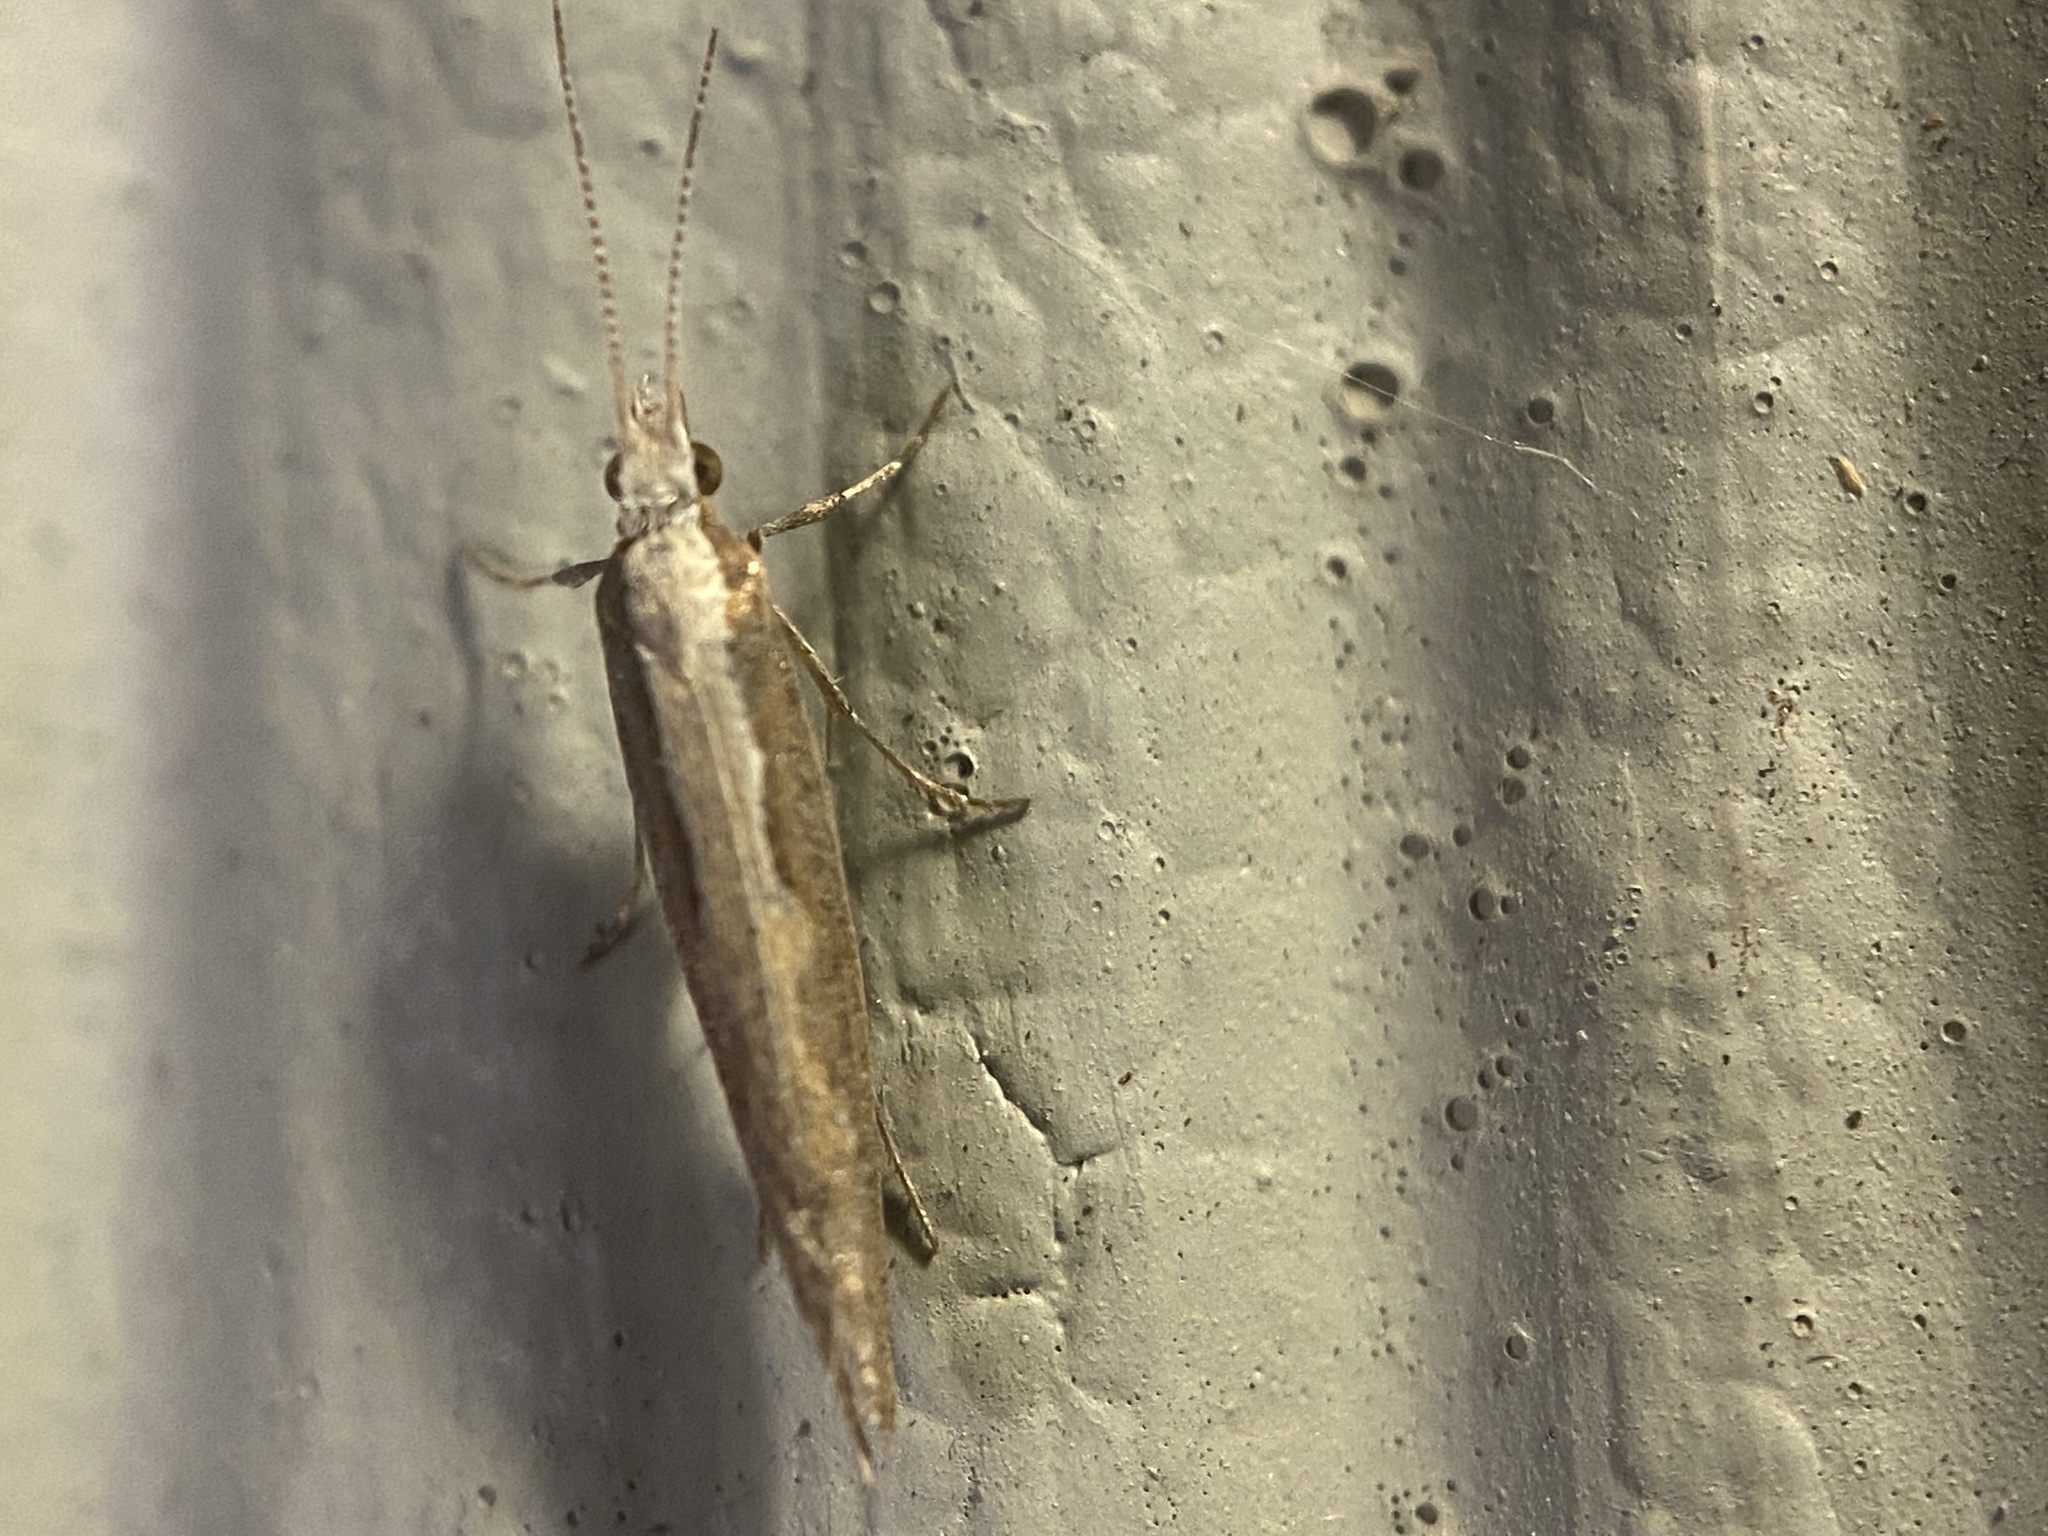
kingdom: Animalia
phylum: Arthropoda
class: Insecta
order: Lepidoptera
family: Plutellidae
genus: Plutella
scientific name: Plutella xylostella
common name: Diamond-back moth
